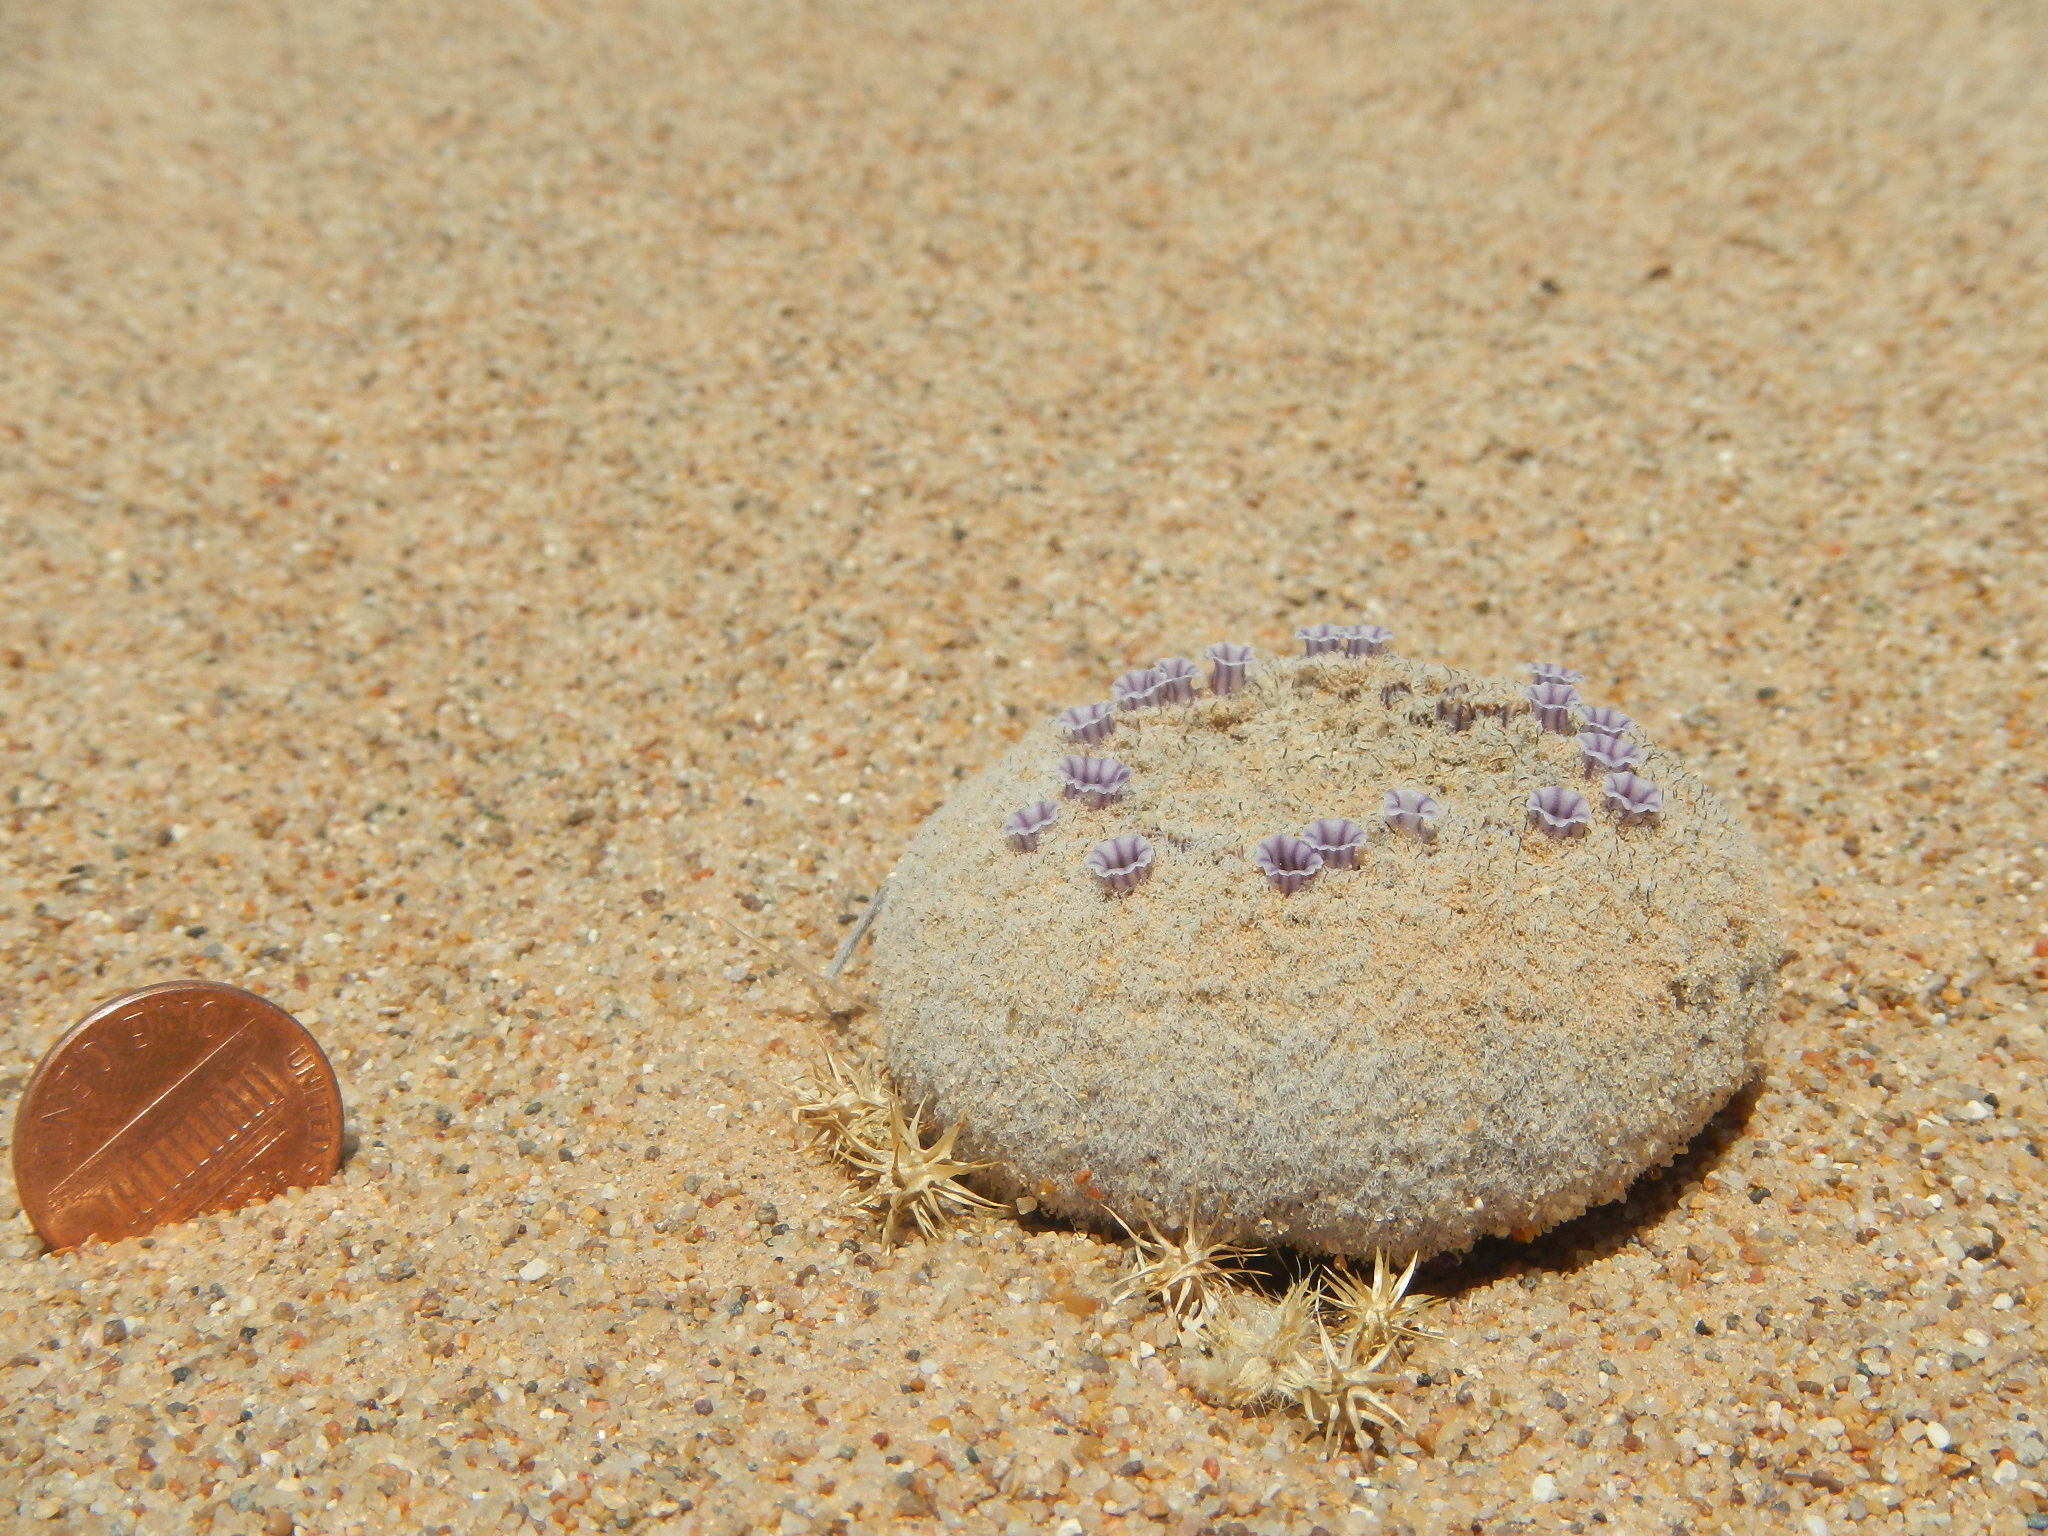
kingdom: Plantae
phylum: Tracheophyta
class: Magnoliopsida
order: Boraginales
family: Lennoaceae
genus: Pholisma
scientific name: Pholisma sonorae
